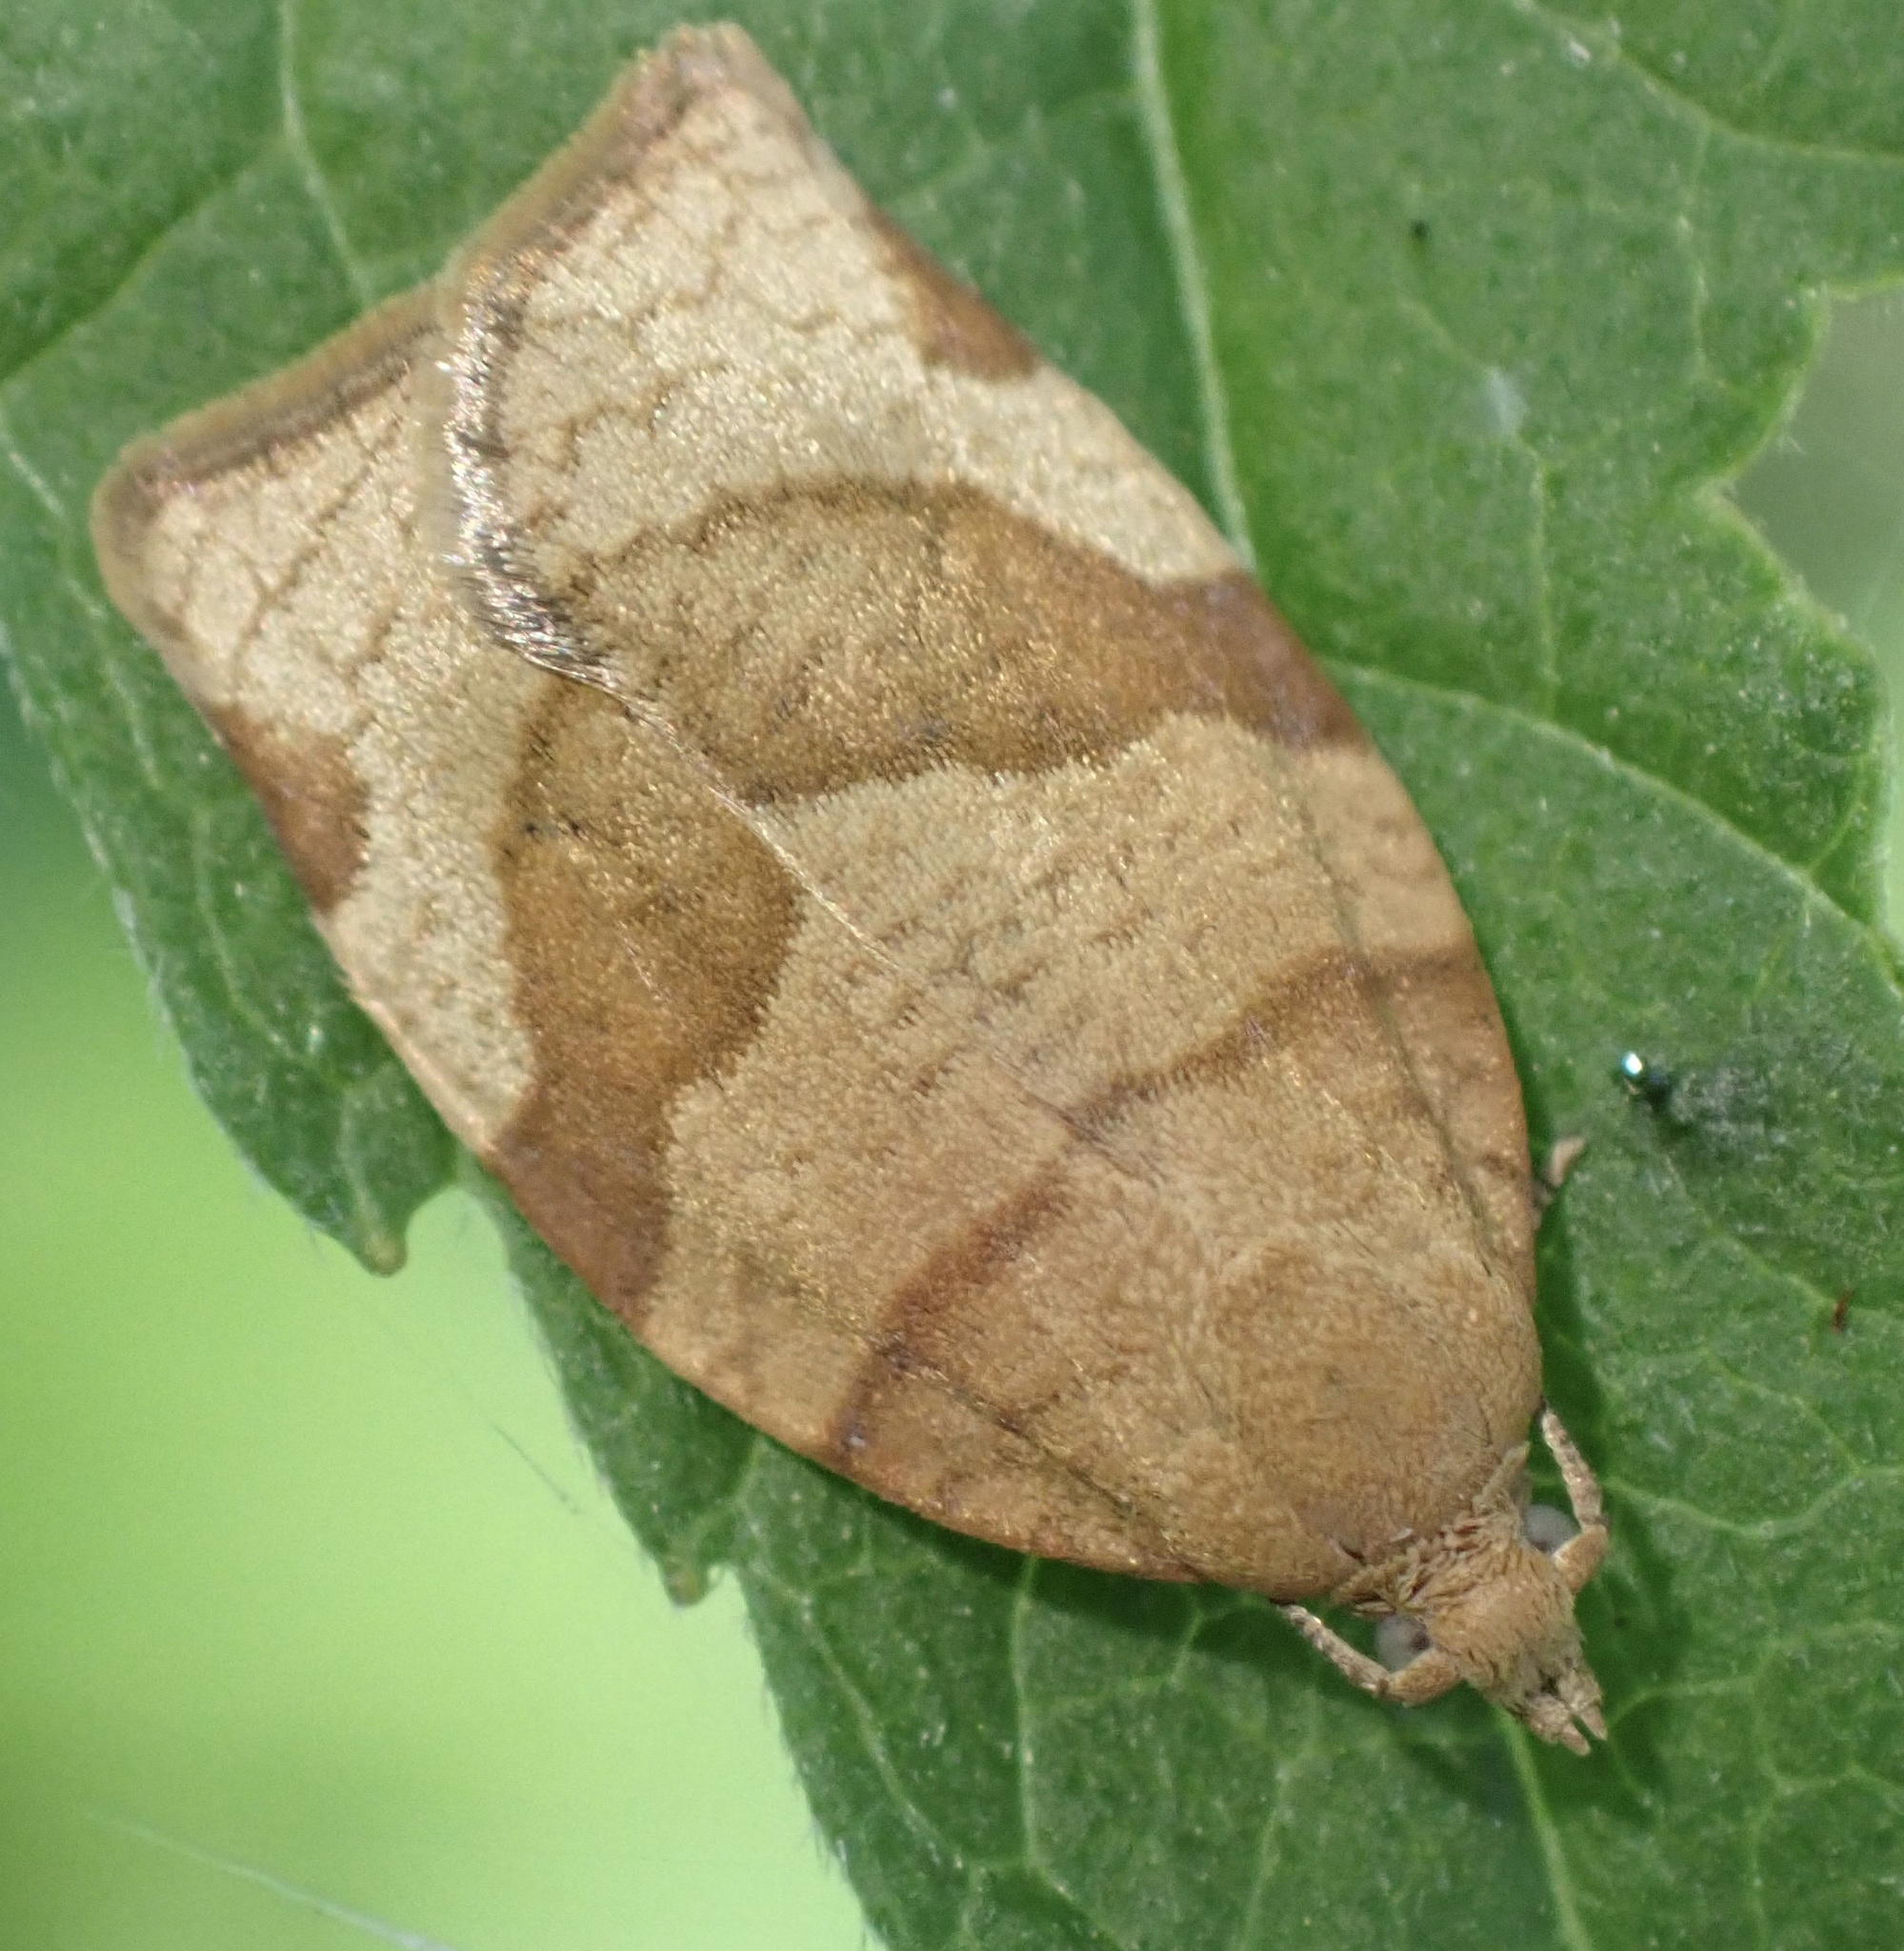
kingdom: Animalia
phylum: Arthropoda
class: Insecta
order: Lepidoptera
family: Tortricidae
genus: Pandemis
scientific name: Pandemis cerasana
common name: Barred fruit-tree tortrix
